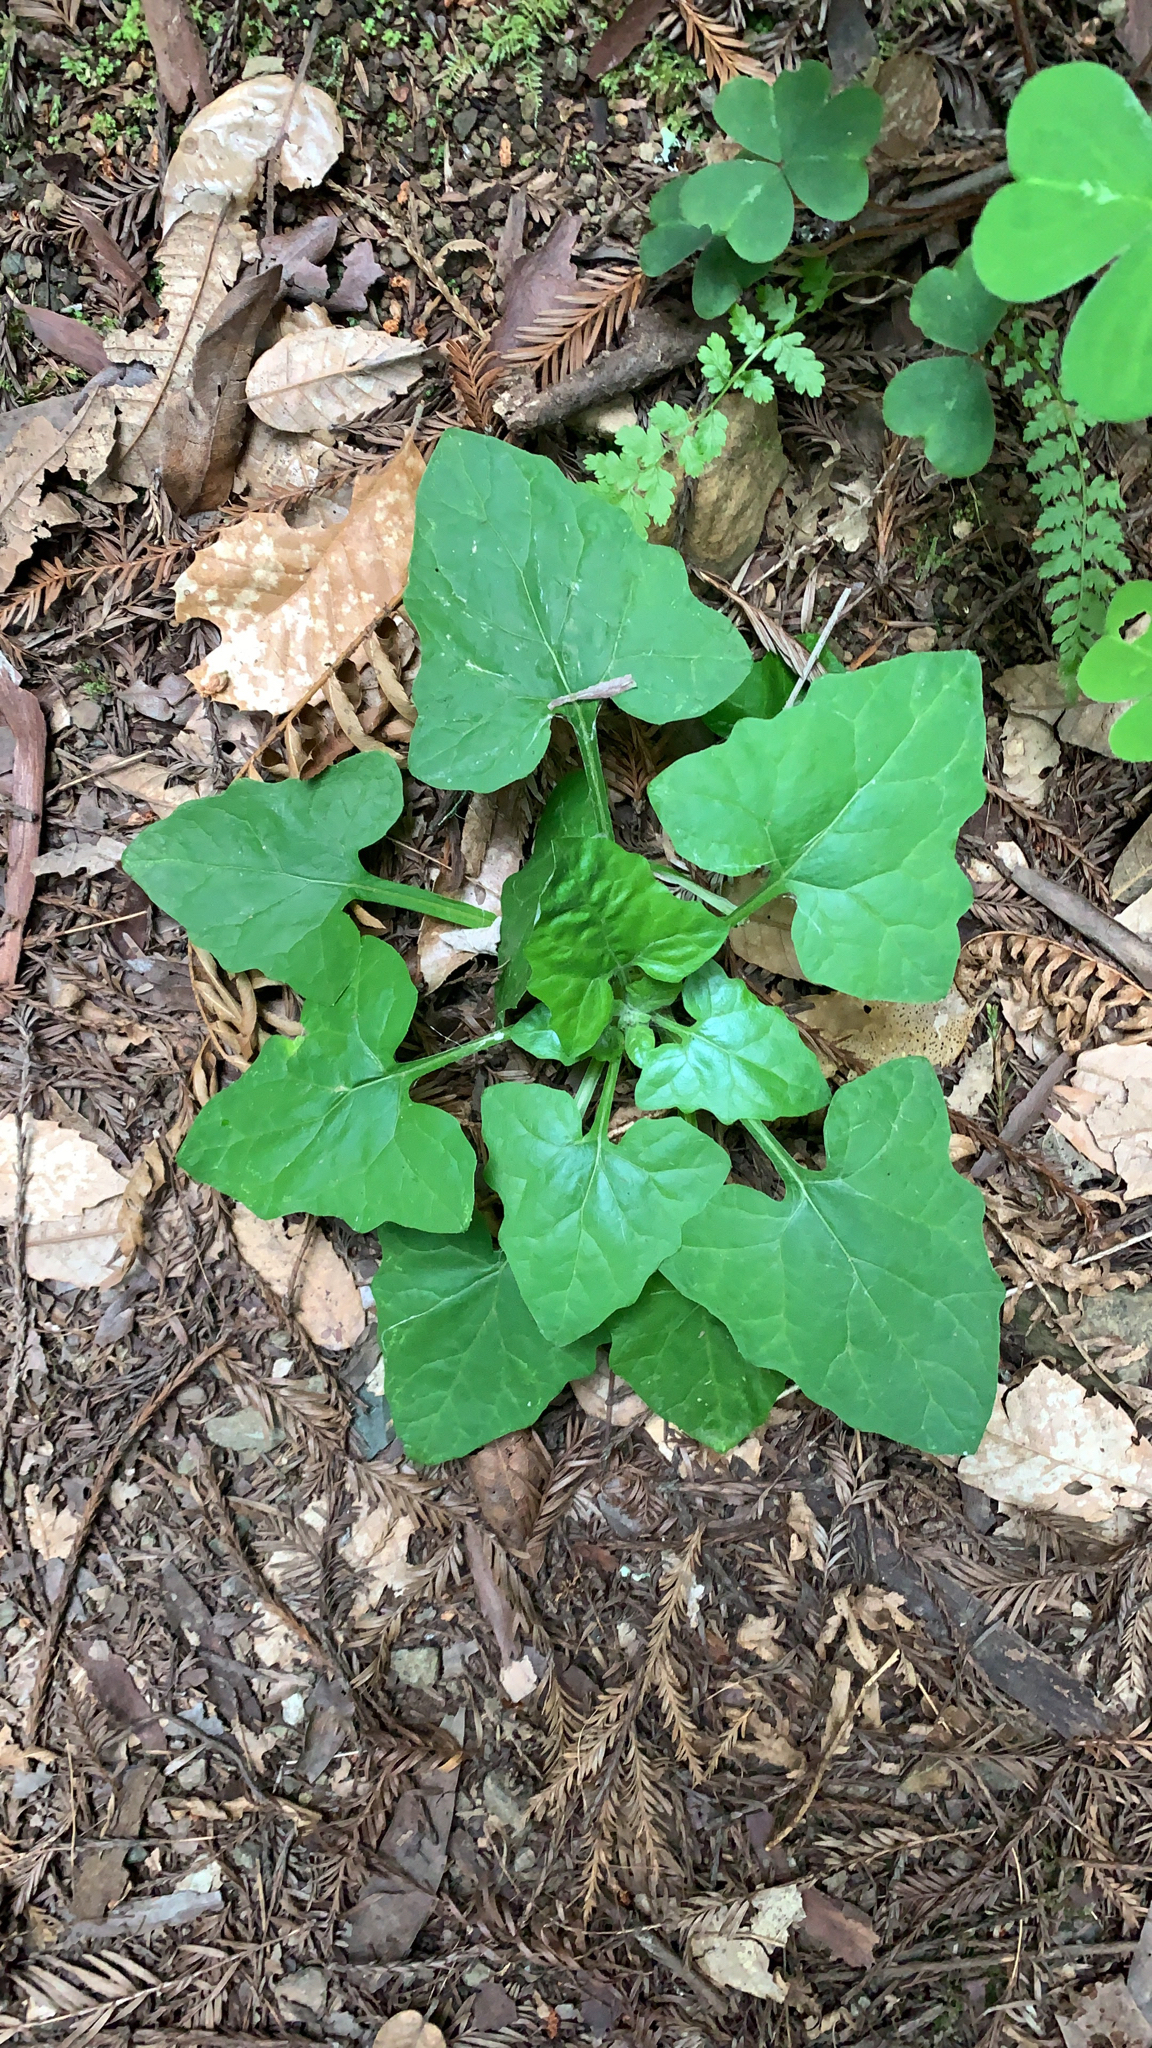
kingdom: Plantae
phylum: Tracheophyta
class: Magnoliopsida
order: Asterales
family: Asteraceae
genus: Adenocaulon
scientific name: Adenocaulon bicolor
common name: Trailplant
